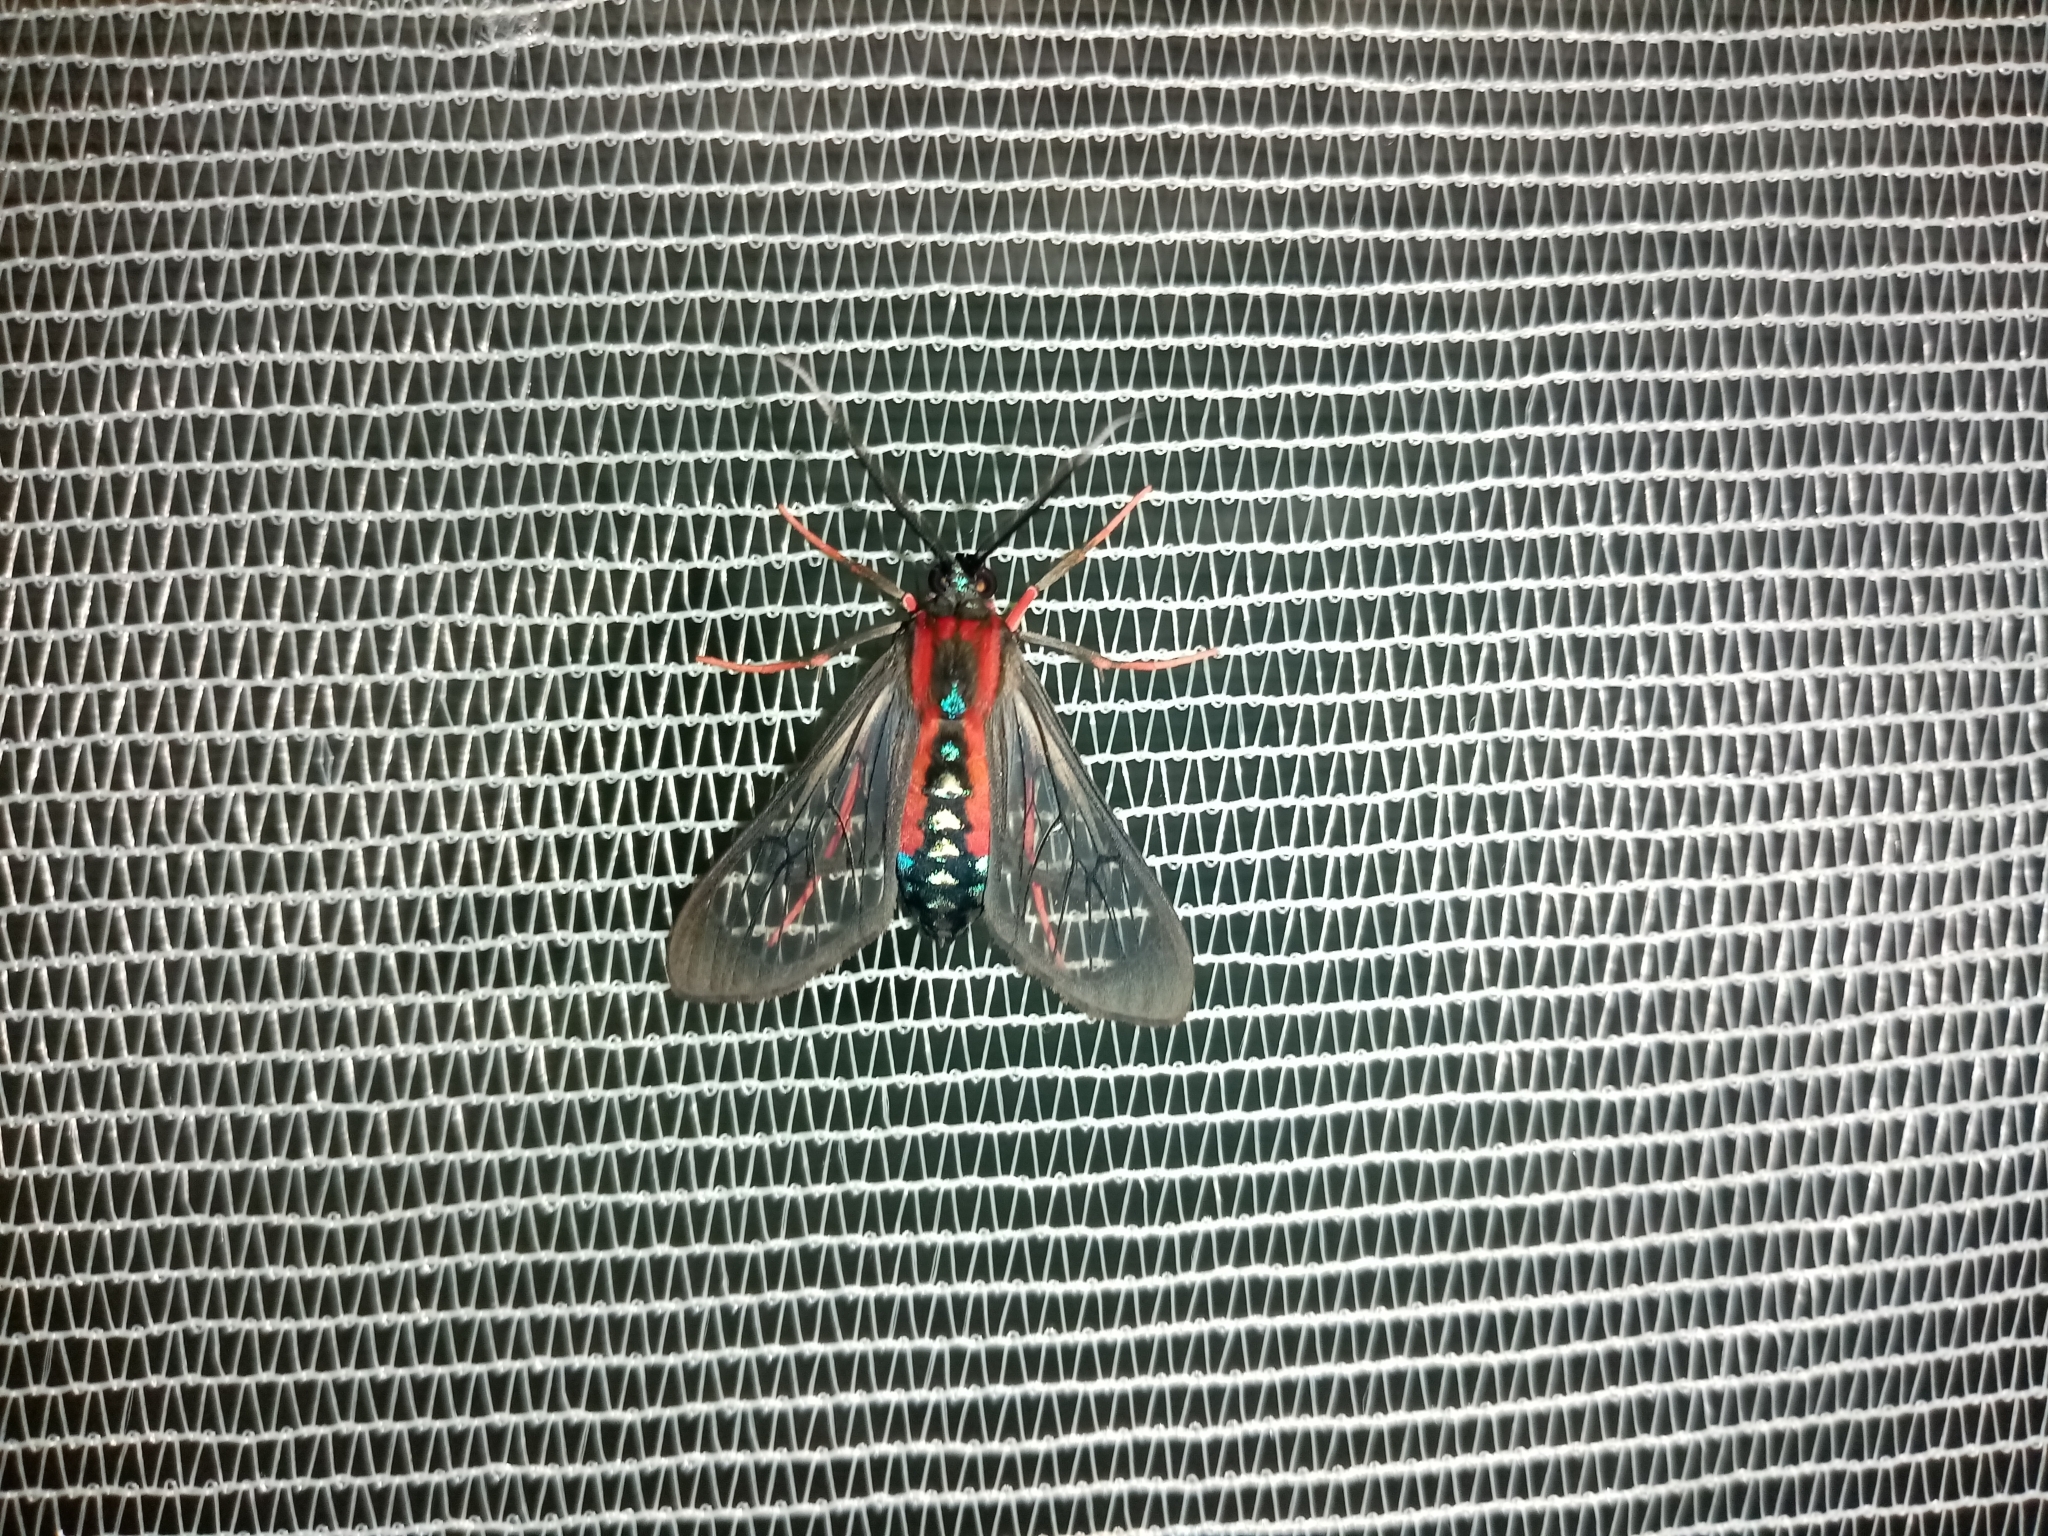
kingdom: Animalia
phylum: Arthropoda
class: Insecta
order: Lepidoptera
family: Erebidae
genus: Cosmosoma
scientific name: Cosmosoma auge
